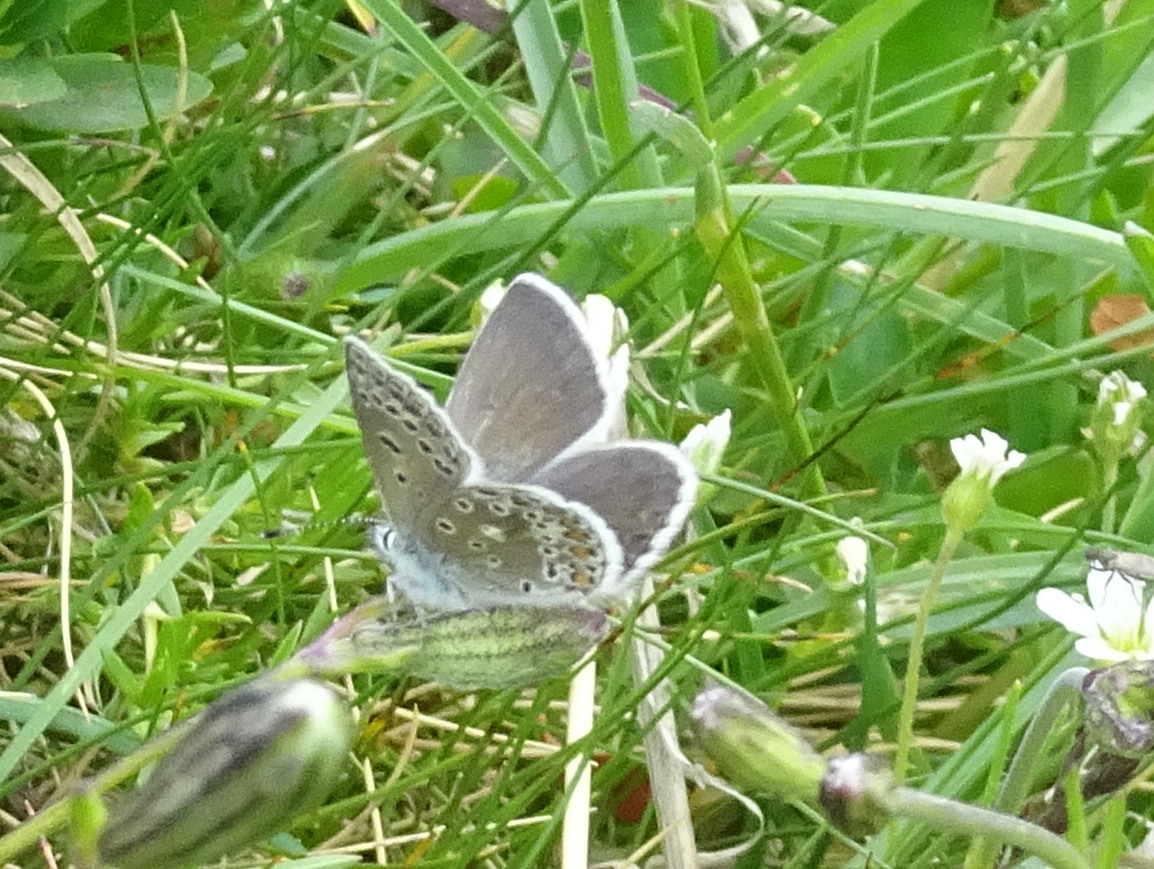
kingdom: Animalia
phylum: Arthropoda
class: Insecta
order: Lepidoptera
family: Lycaenidae
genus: Polyommatus
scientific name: Polyommatus eros
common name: Eros blue
